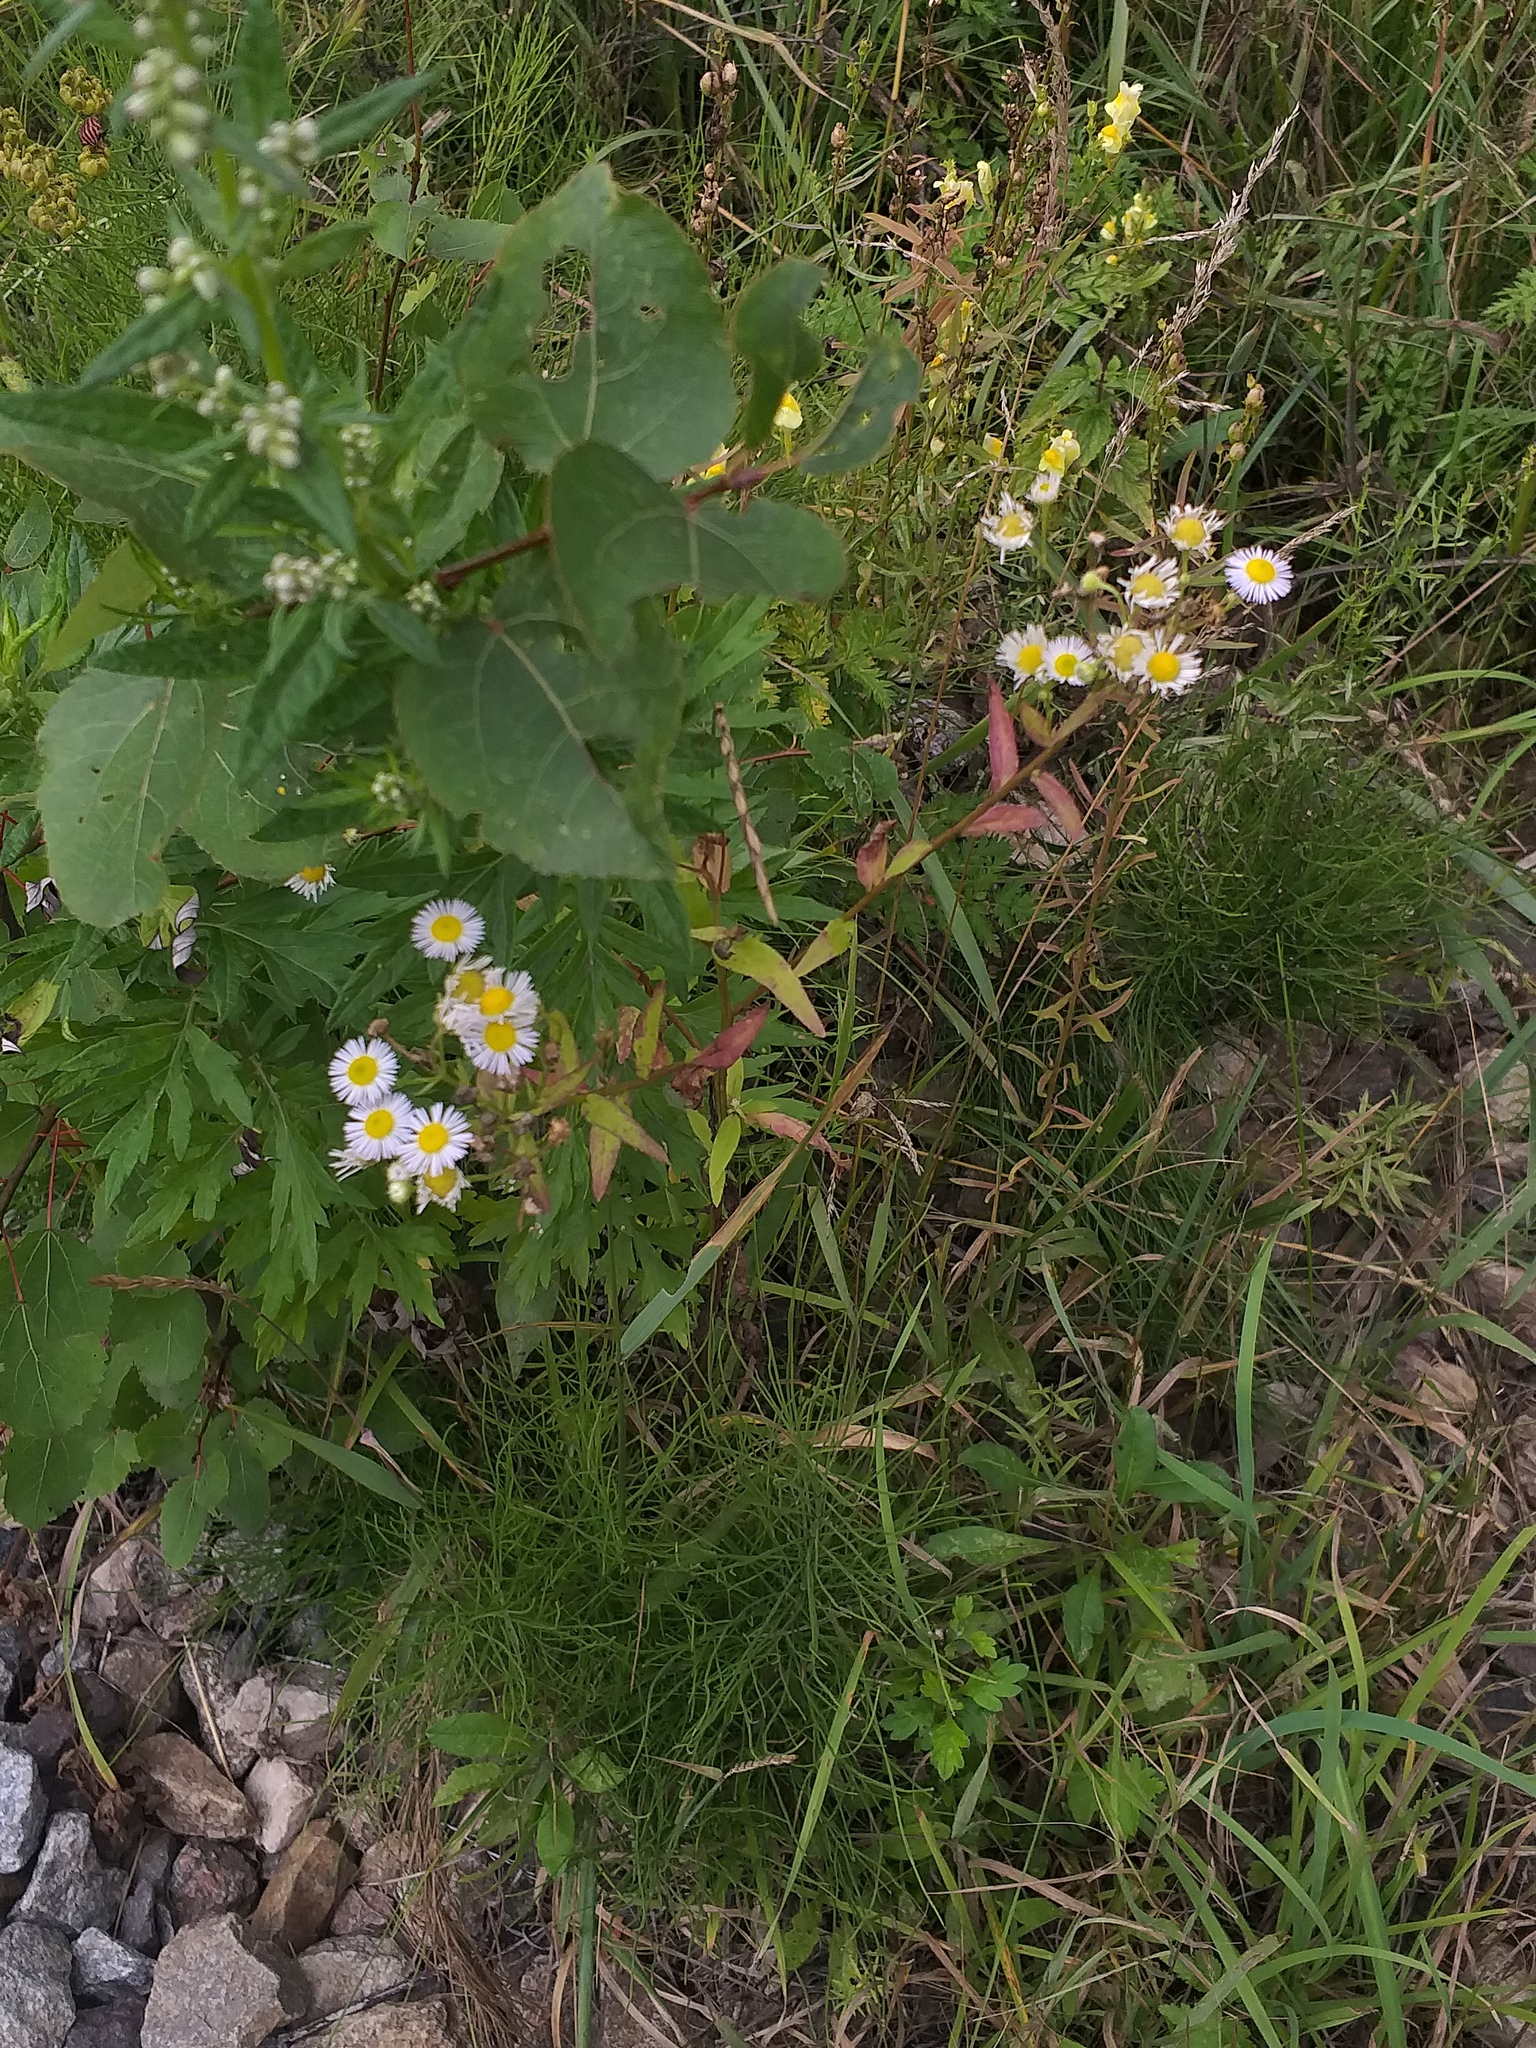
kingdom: Plantae
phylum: Tracheophyta
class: Magnoliopsida
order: Asterales
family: Asteraceae
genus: Erigeron
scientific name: Erigeron annuus
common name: Tall fleabane
